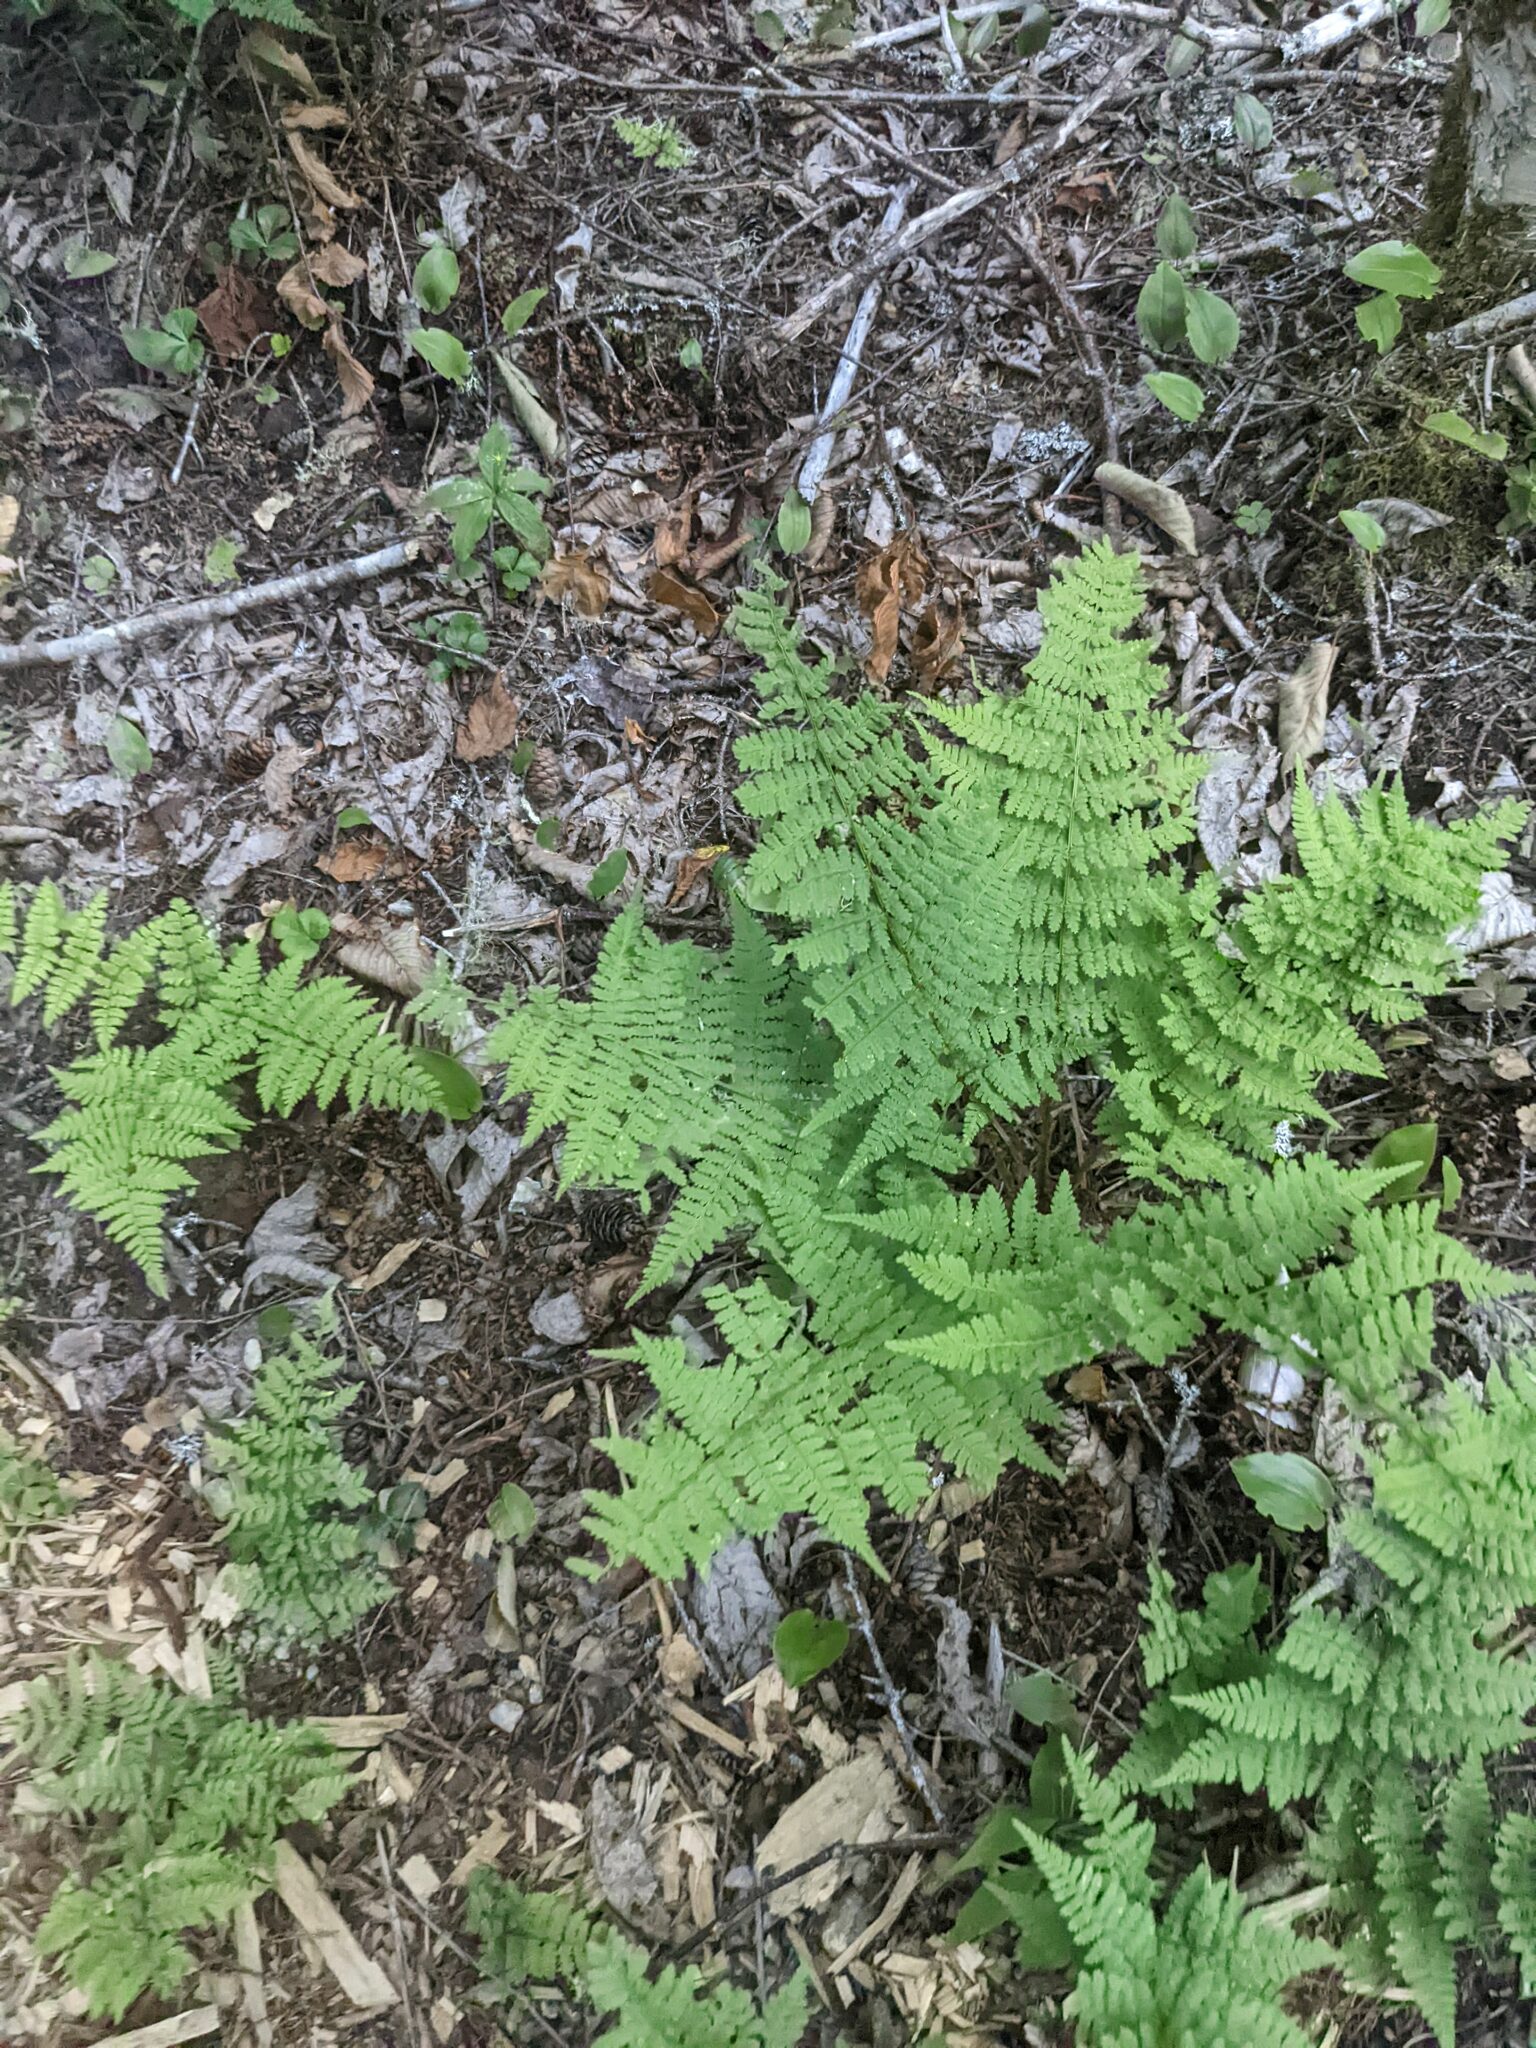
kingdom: Plantae
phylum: Tracheophyta
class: Polypodiopsida
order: Polypodiales
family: Dryopteridaceae
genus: Dryopteris
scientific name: Dryopteris intermedia
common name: Evergreen wood fern
